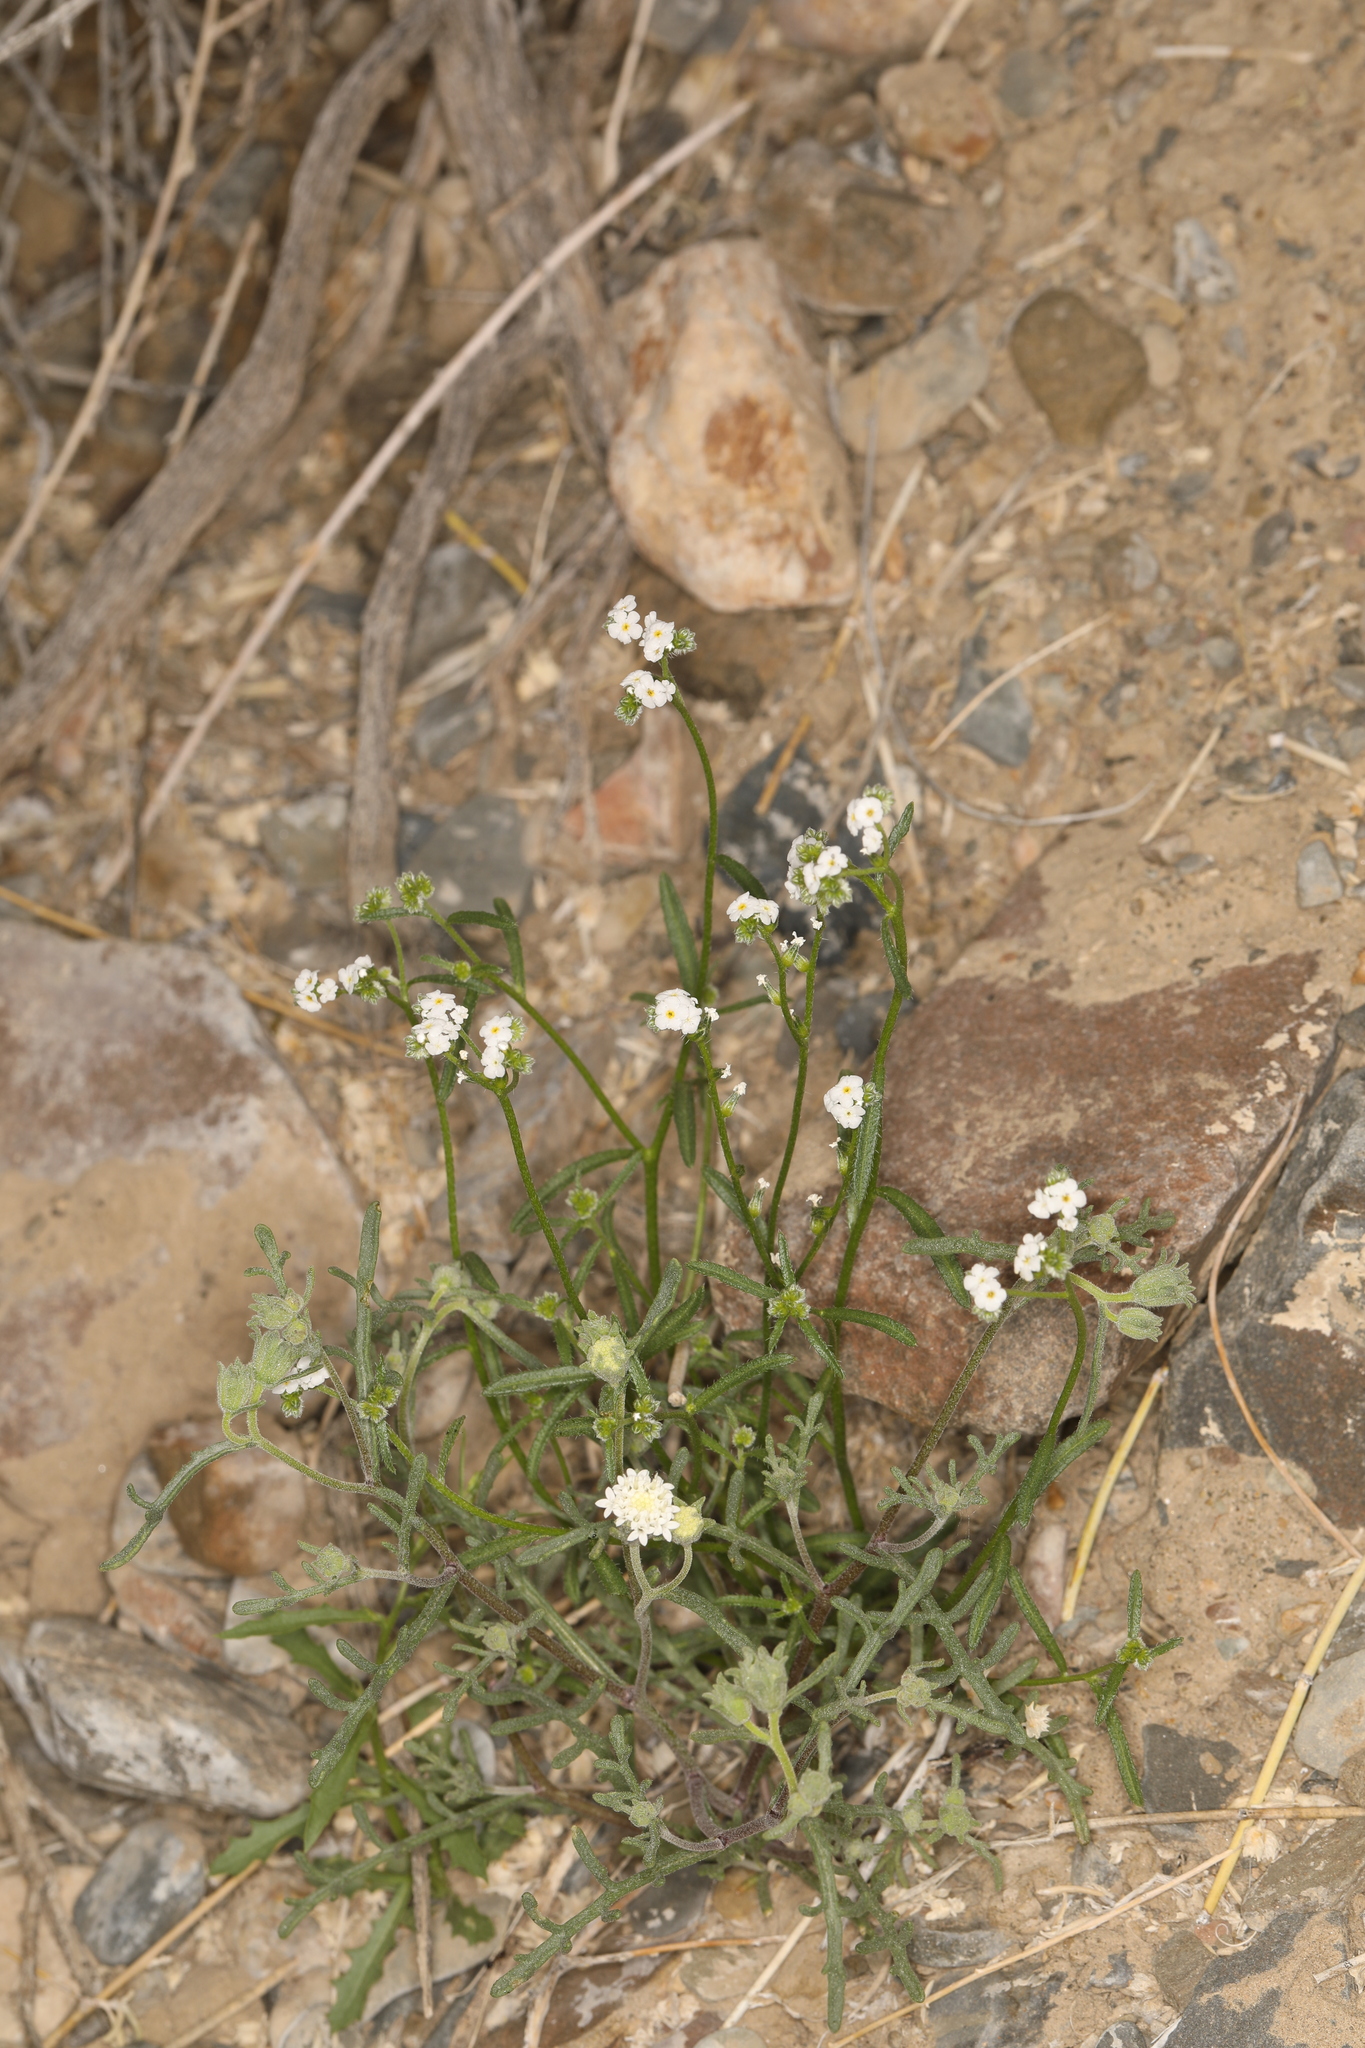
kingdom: Plantae
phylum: Tracheophyta
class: Magnoliopsida
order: Boraginales
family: Boraginaceae
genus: Cryptantha
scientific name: Cryptantha utahensis
